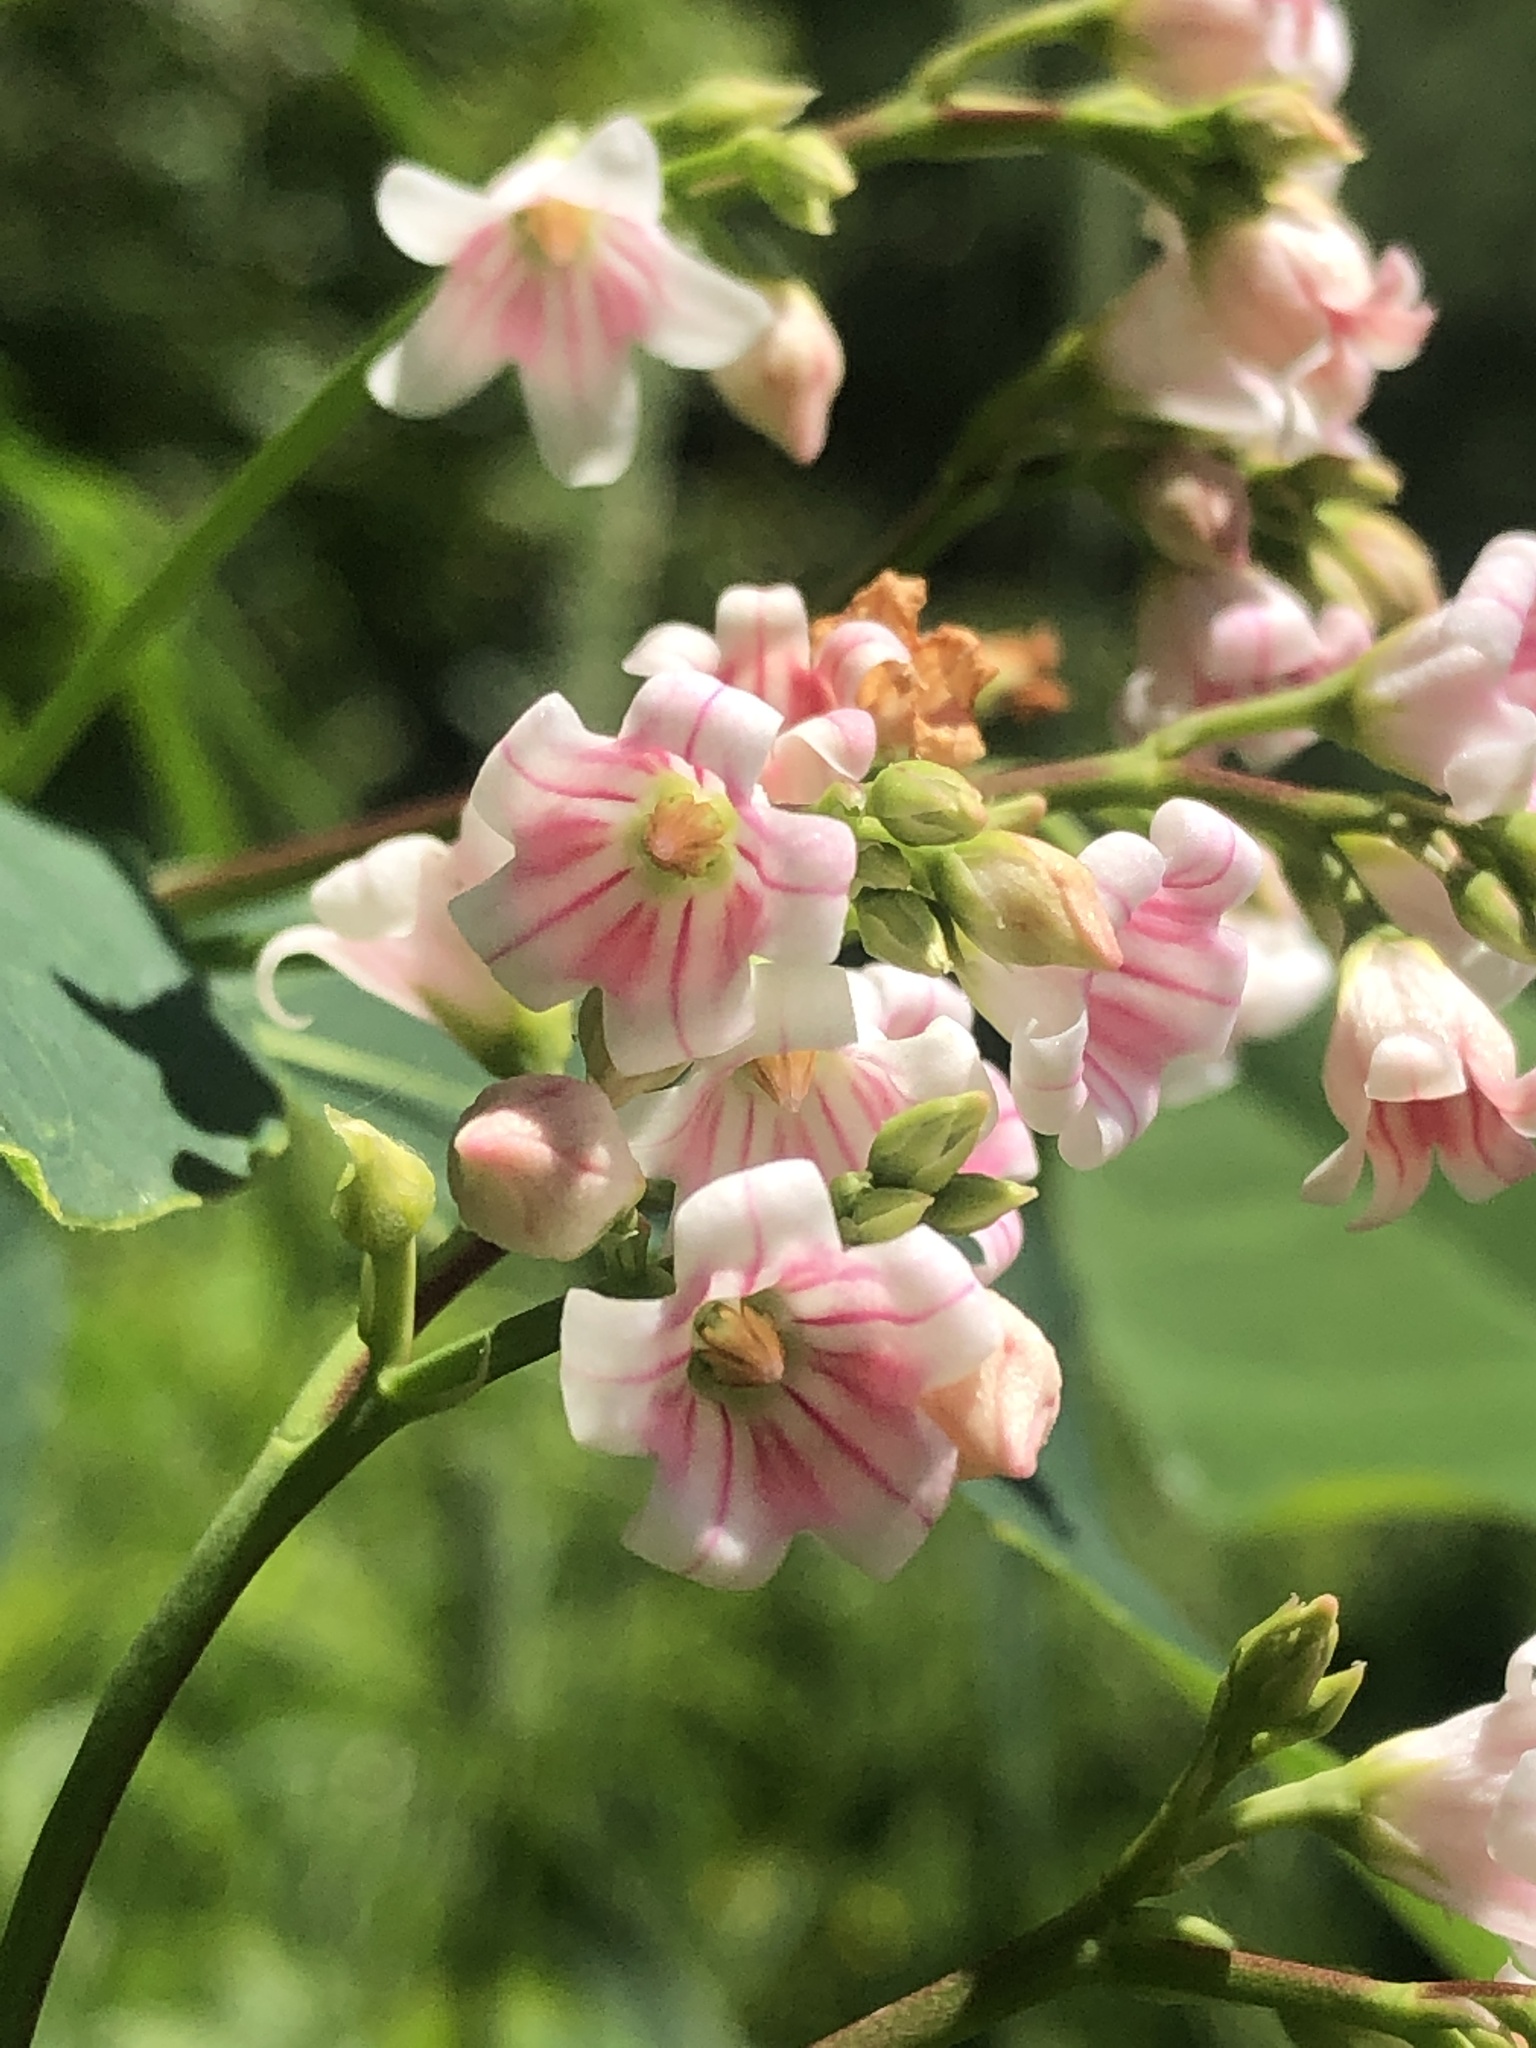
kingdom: Plantae
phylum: Tracheophyta
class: Magnoliopsida
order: Gentianales
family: Apocynaceae
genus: Apocynum
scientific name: Apocynum androsaemifolium
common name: Spreading dogbane
